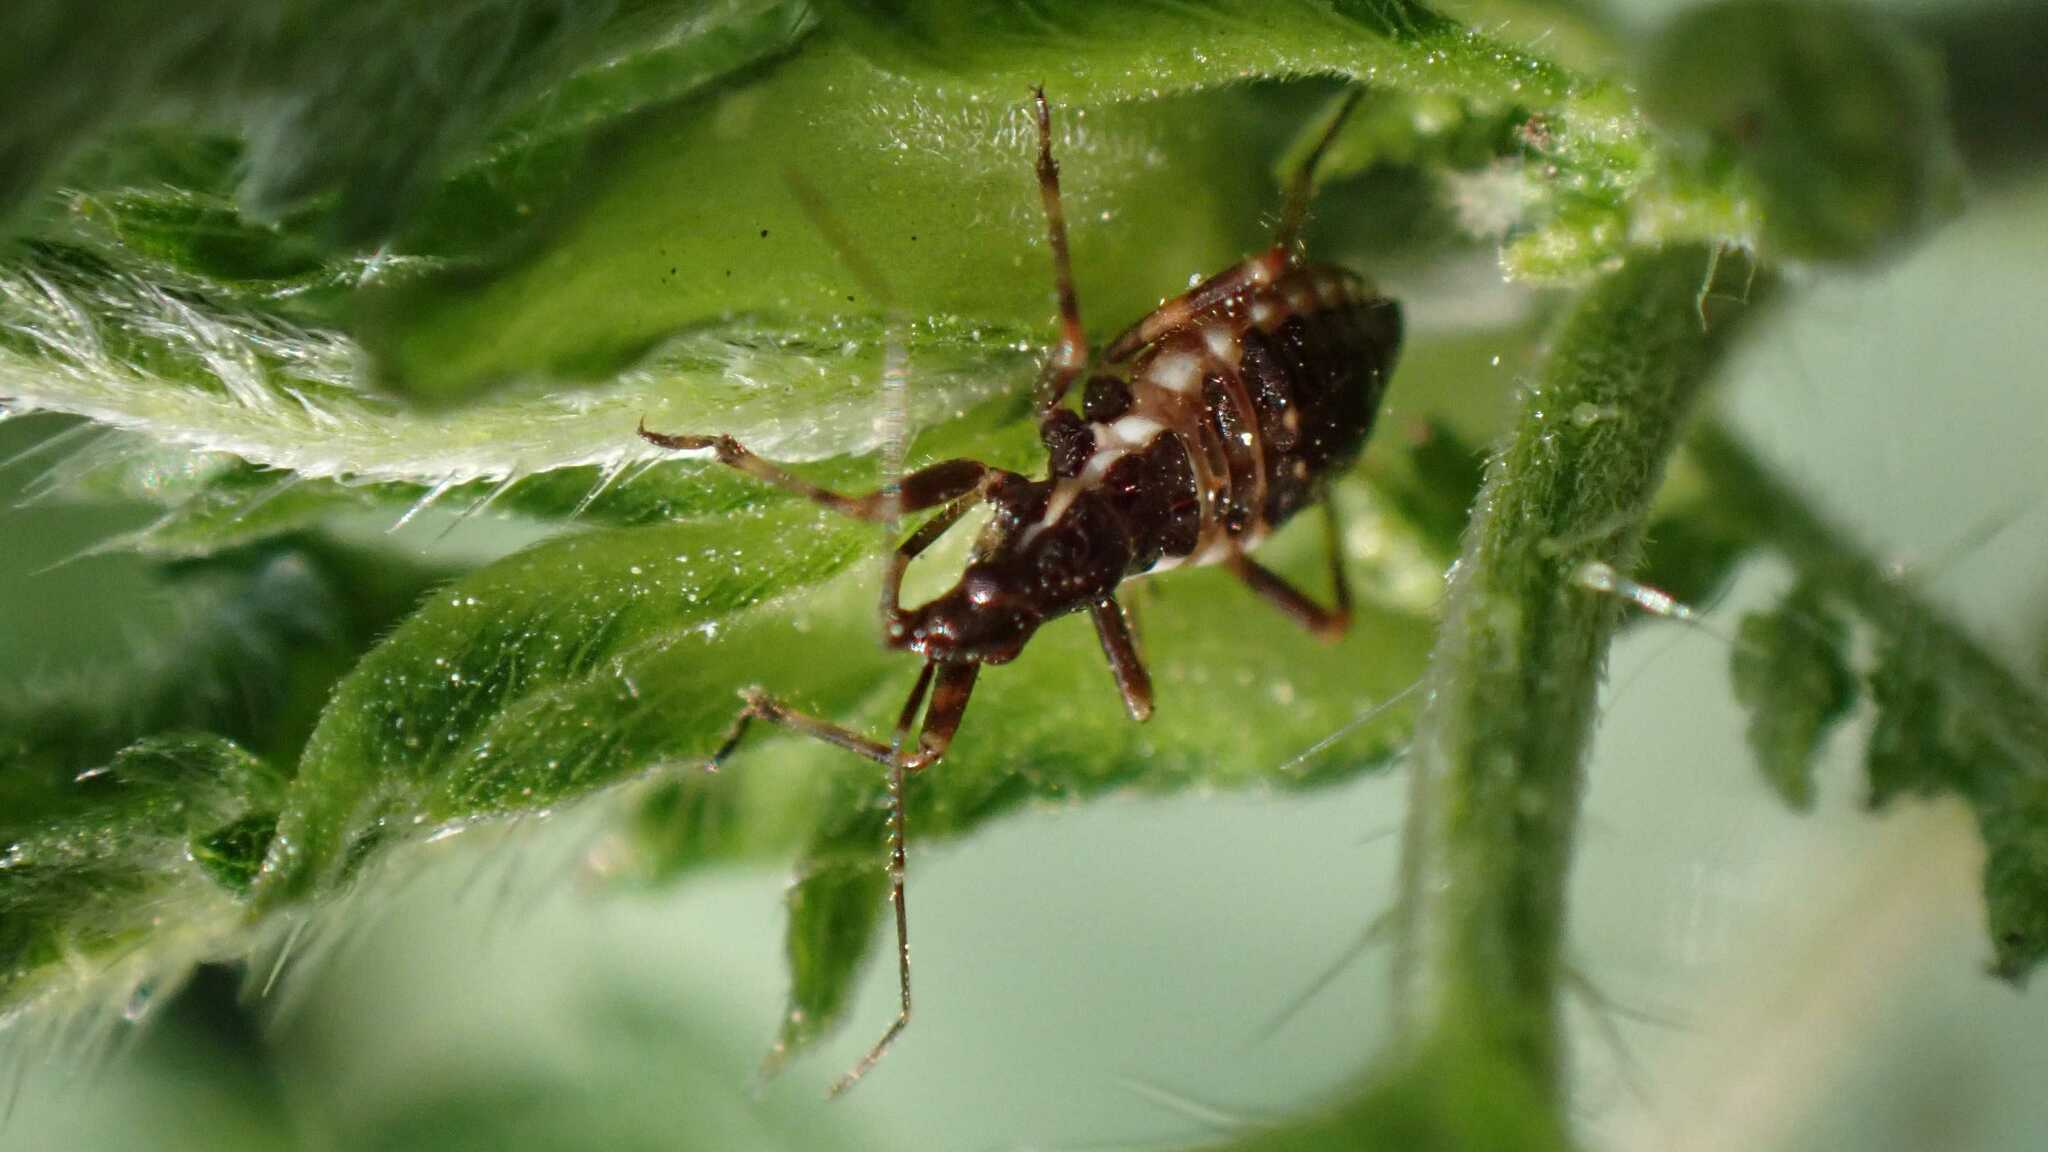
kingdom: Animalia
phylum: Arthropoda
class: Insecta
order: Hemiptera
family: Nabidae
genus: Himacerus
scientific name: Himacerus apterus
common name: Tree damsel bug
